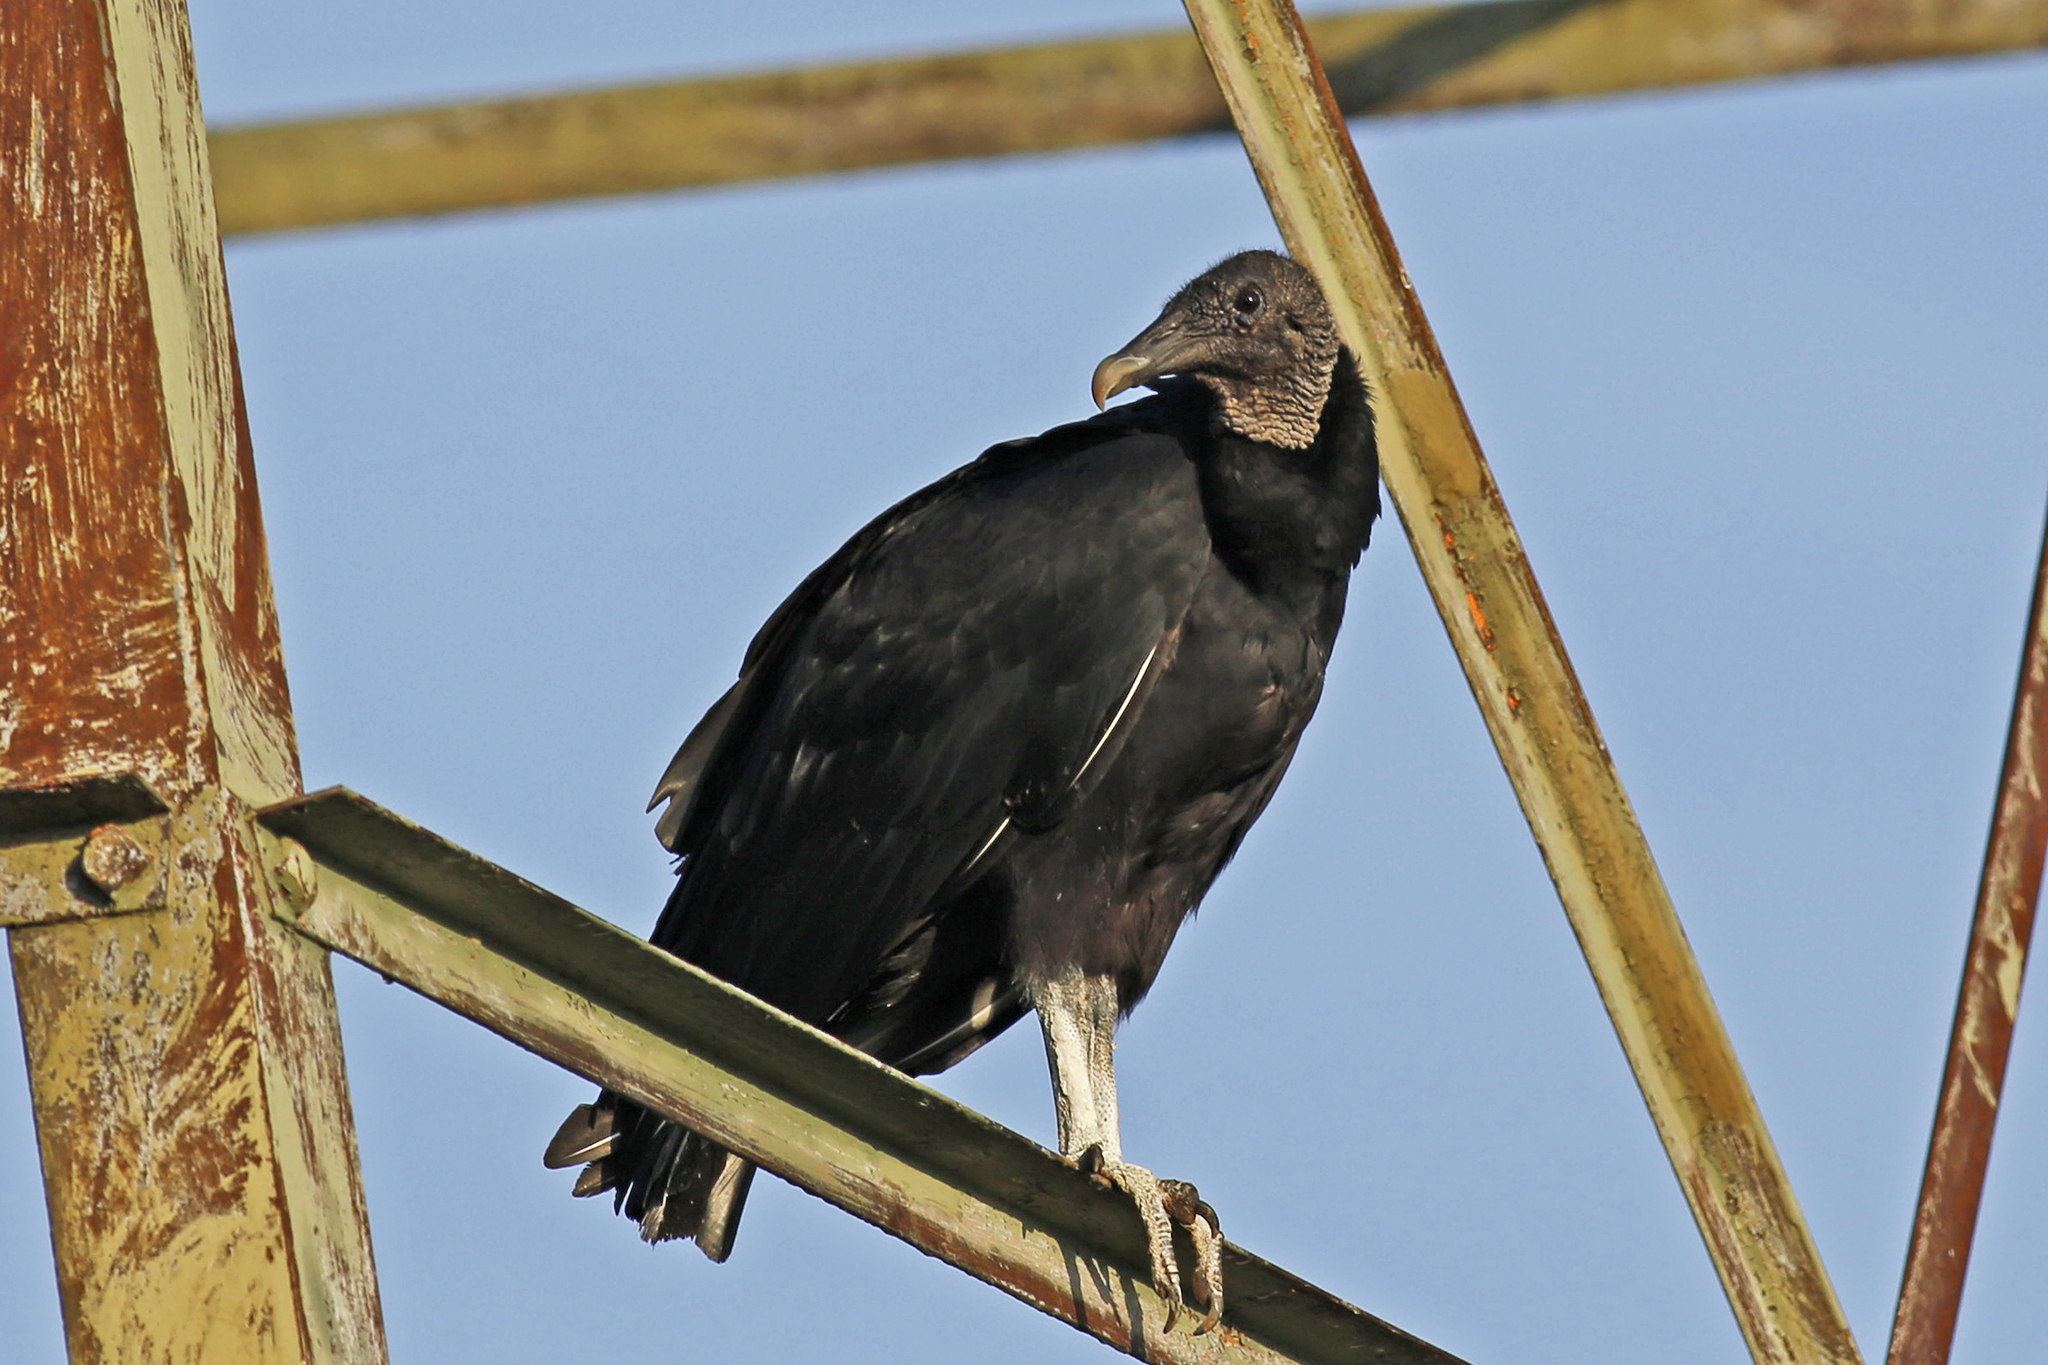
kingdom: Animalia
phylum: Chordata
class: Aves
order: Accipitriformes
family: Cathartidae
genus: Coragyps
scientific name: Coragyps atratus
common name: Black vulture
